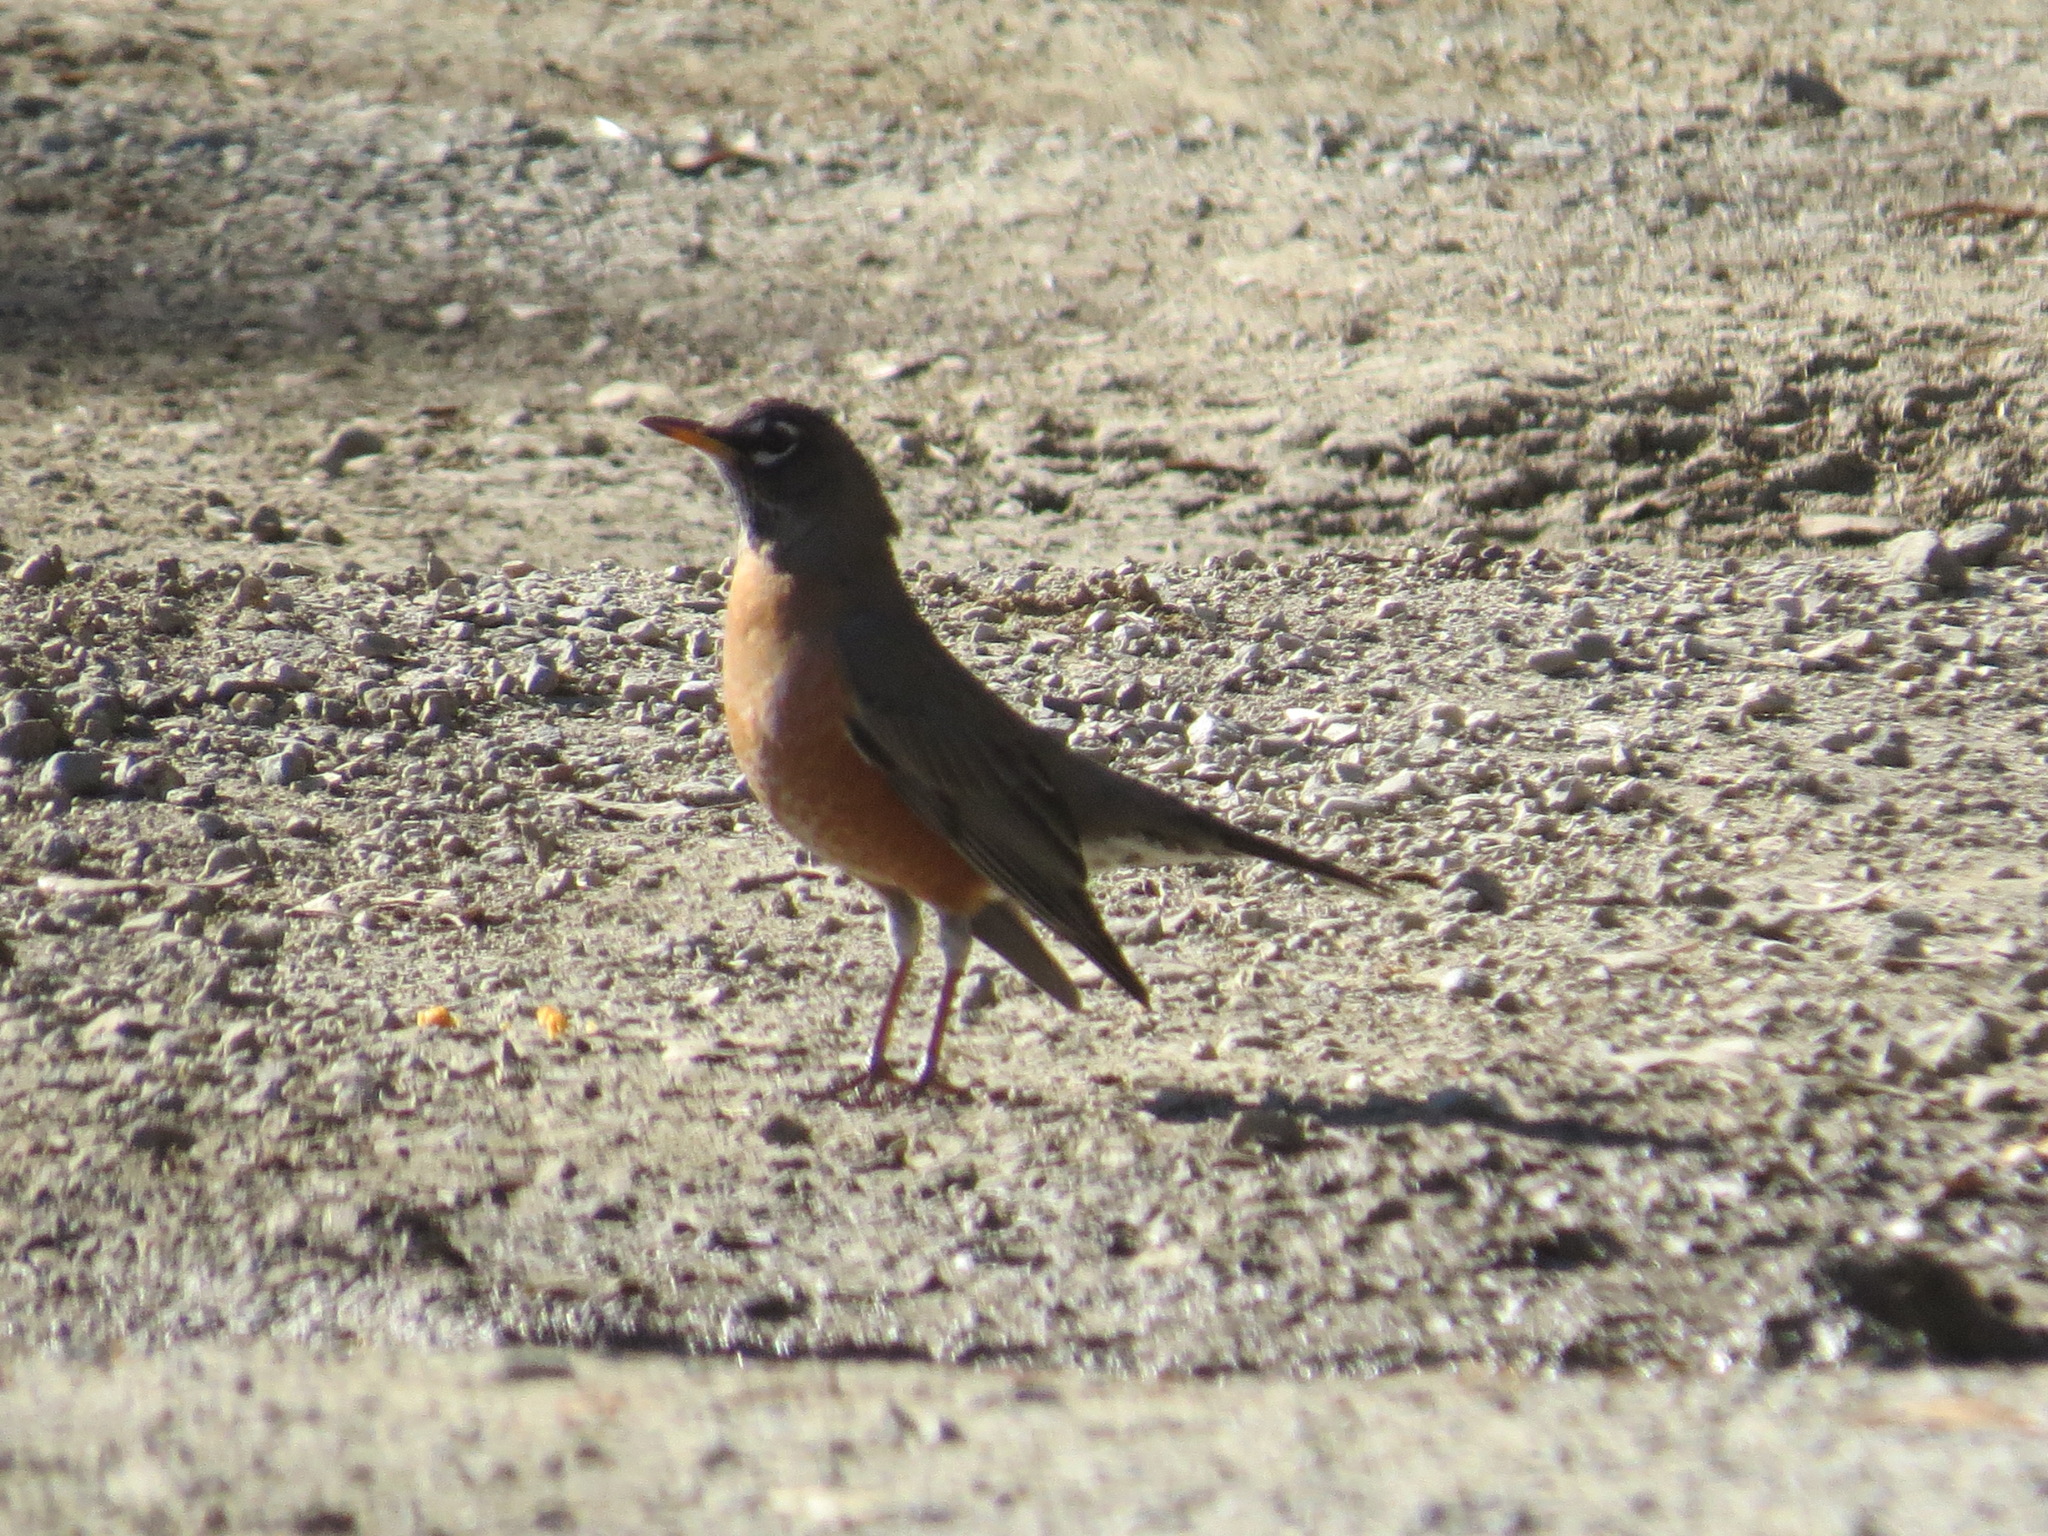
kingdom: Animalia
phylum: Chordata
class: Aves
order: Passeriformes
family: Turdidae
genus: Turdus
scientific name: Turdus migratorius
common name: American robin
